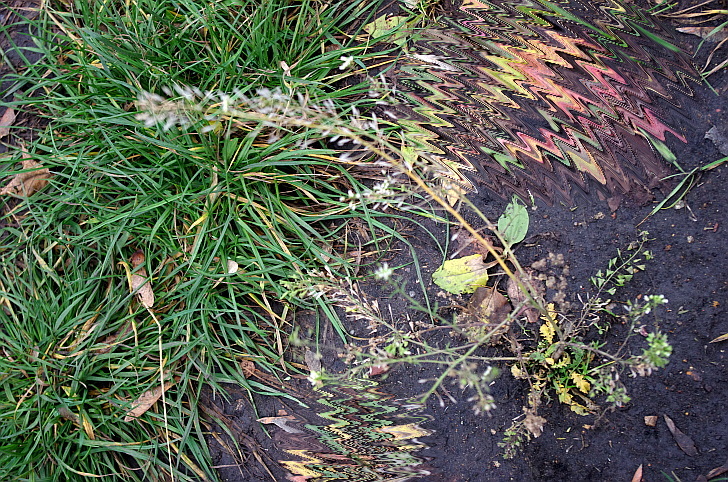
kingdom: Plantae
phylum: Tracheophyta
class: Magnoliopsida
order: Brassicales
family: Brassicaceae
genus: Capsella
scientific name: Capsella bursa-pastoris
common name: Shepherd's purse
